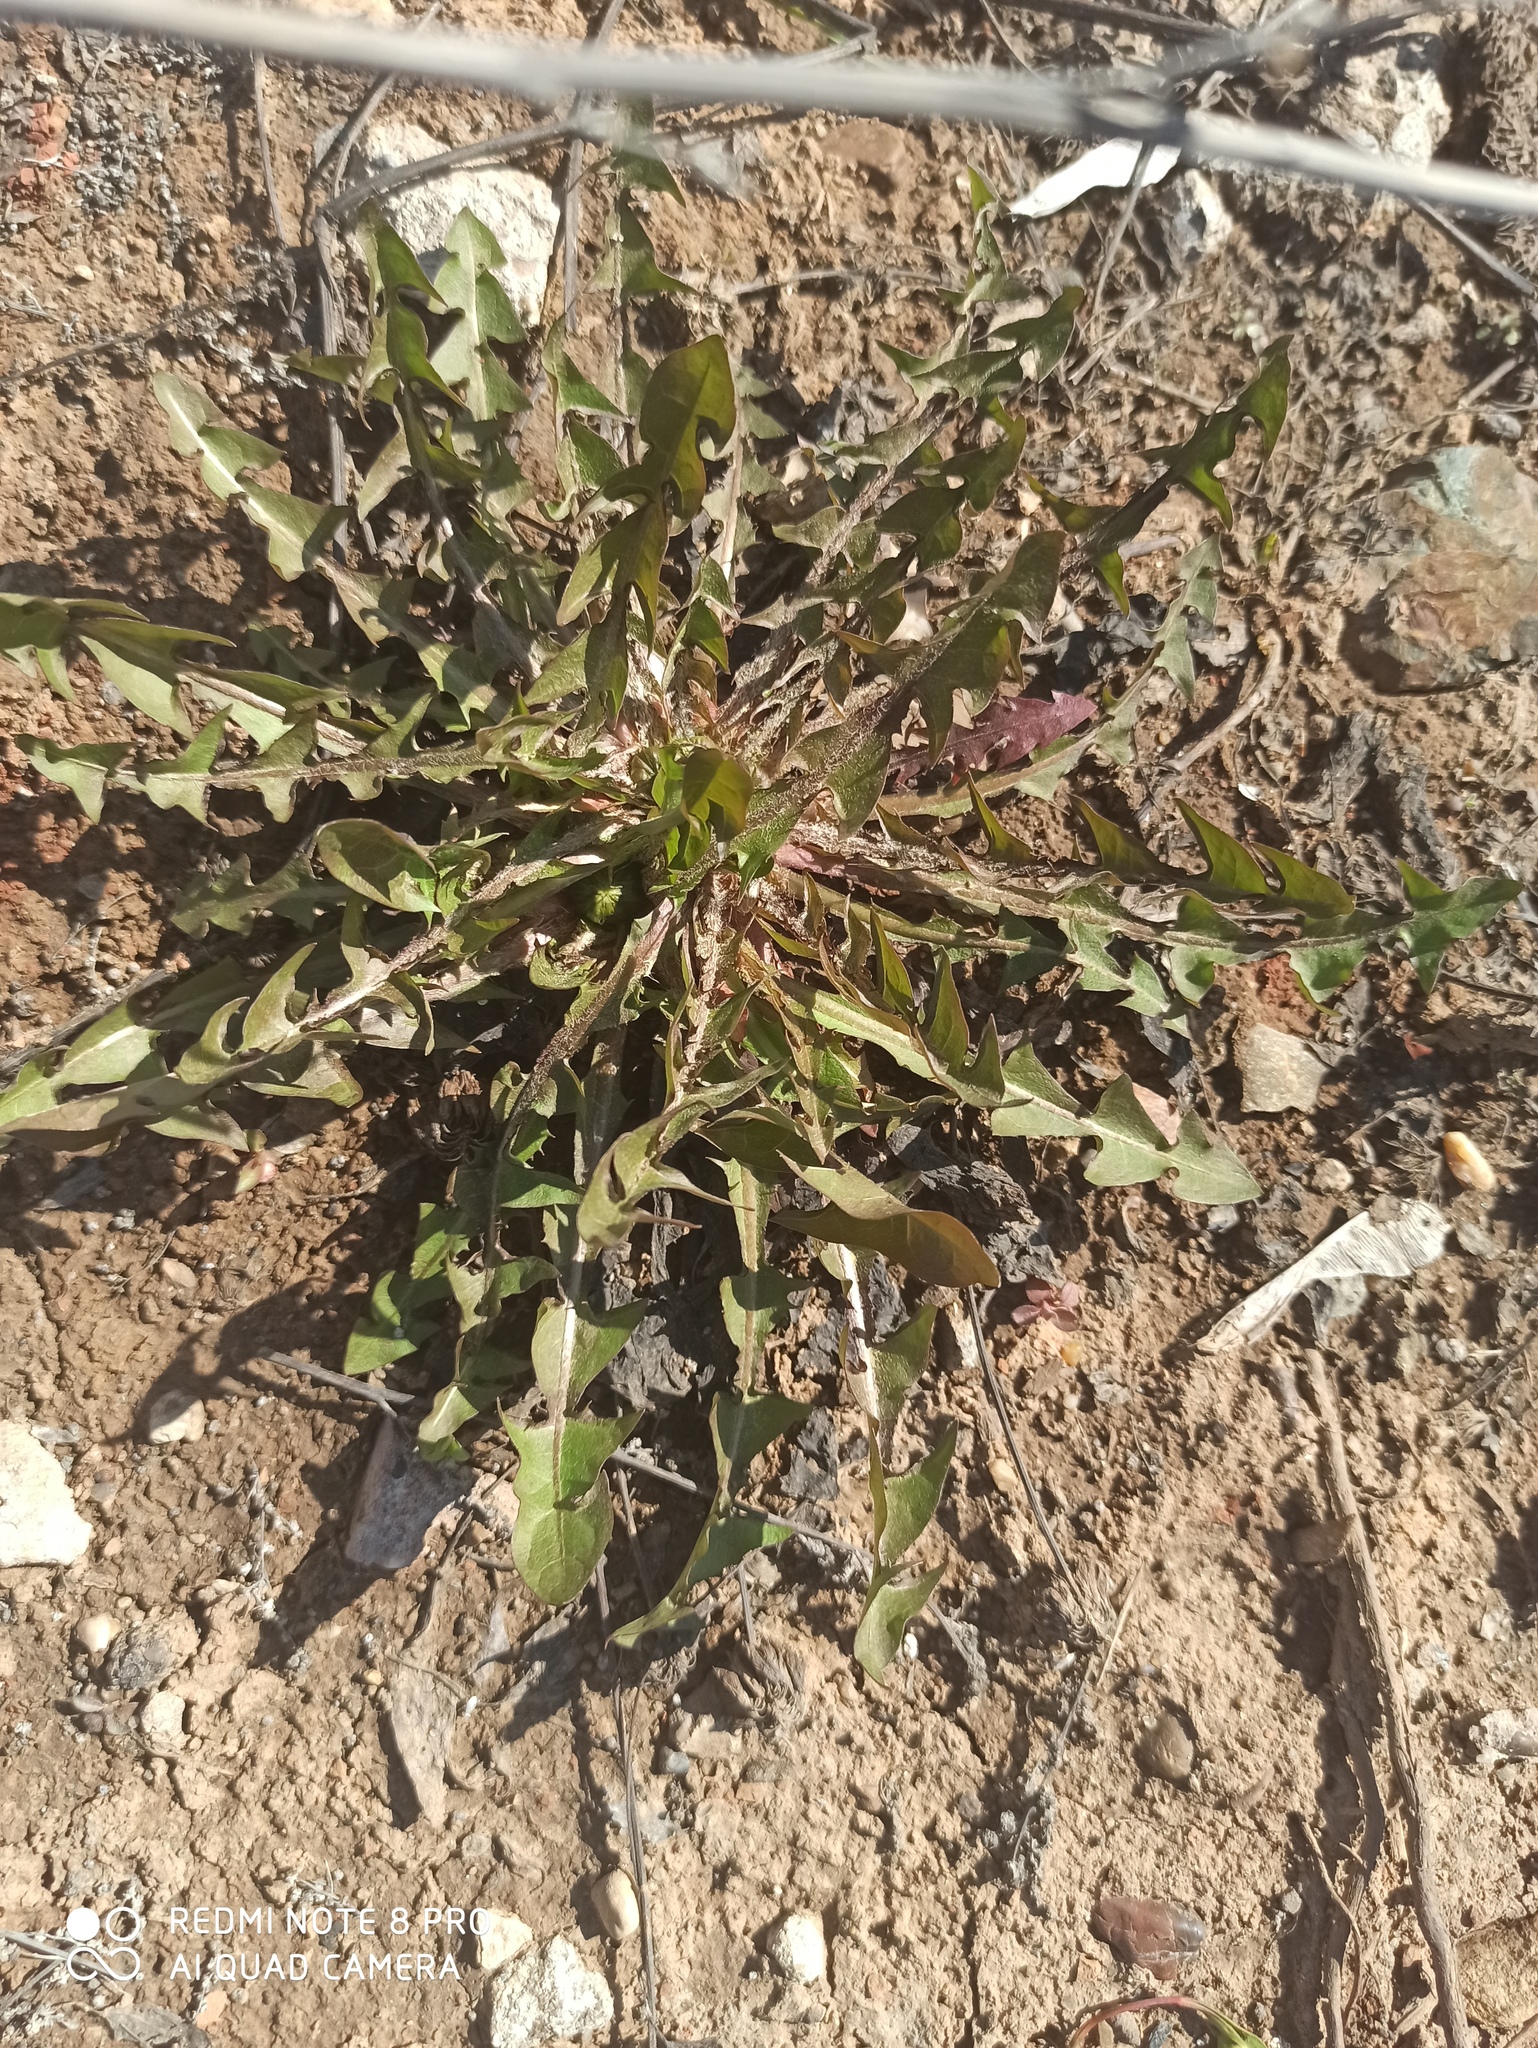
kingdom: Plantae
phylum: Tracheophyta
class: Magnoliopsida
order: Asterales
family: Asteraceae
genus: Taraxacum
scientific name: Taraxacum officinale
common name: Common dandelion
